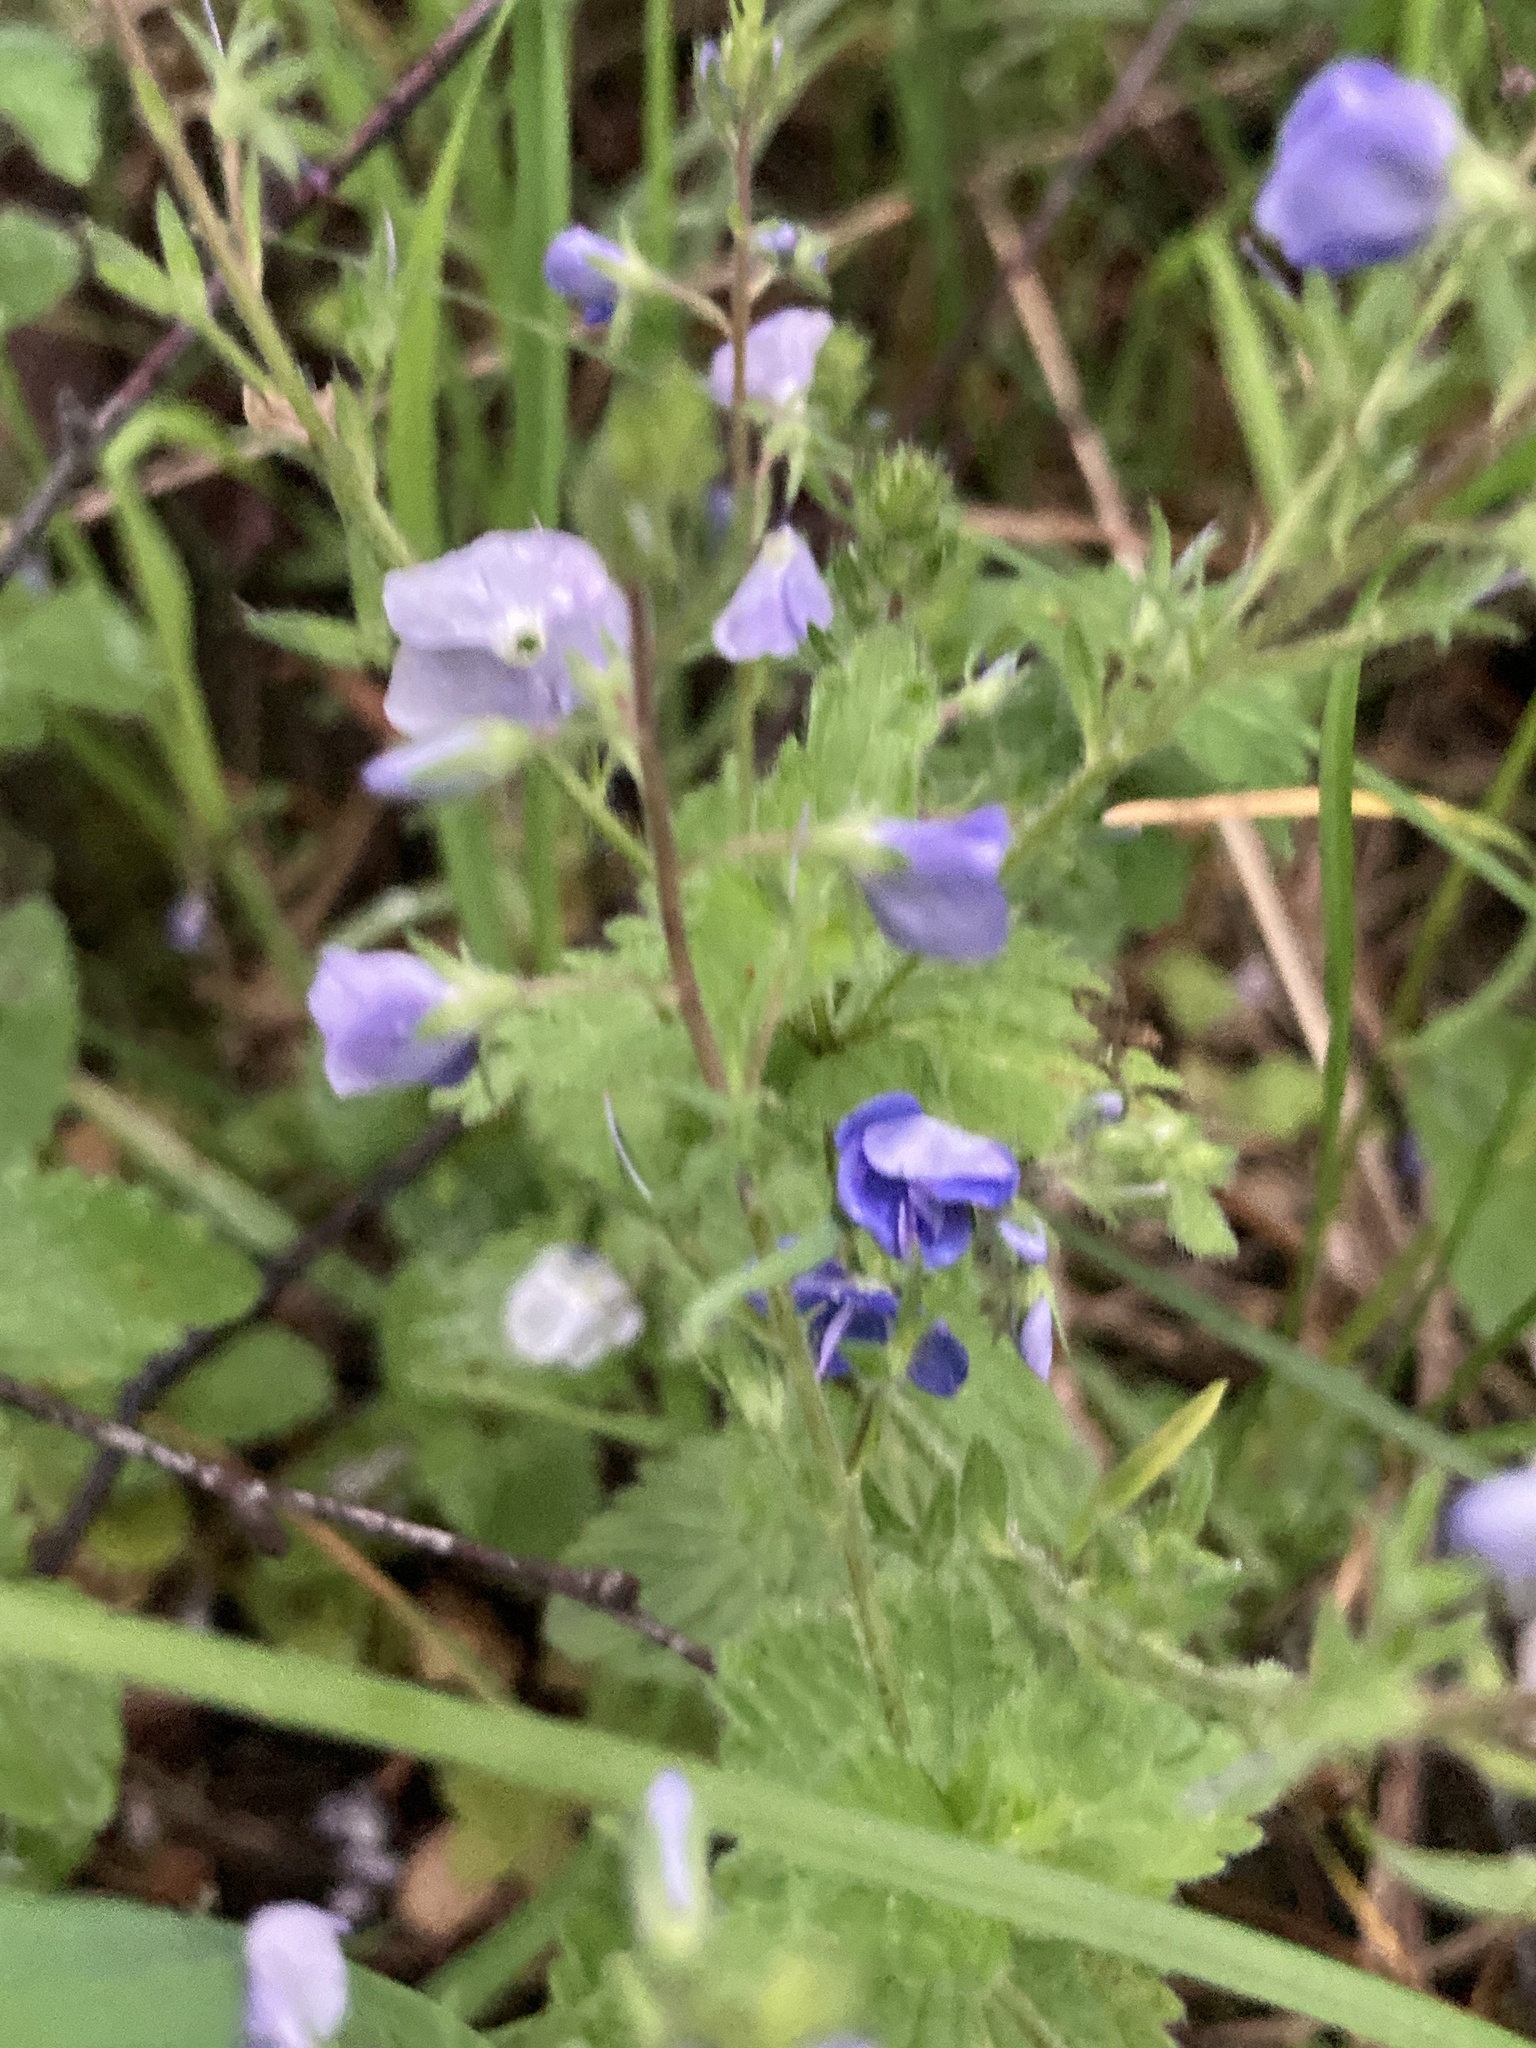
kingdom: Plantae
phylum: Tracheophyta
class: Magnoliopsida
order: Lamiales
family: Plantaginaceae
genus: Veronica
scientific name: Veronica chamaedrys
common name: Germander speedwell
